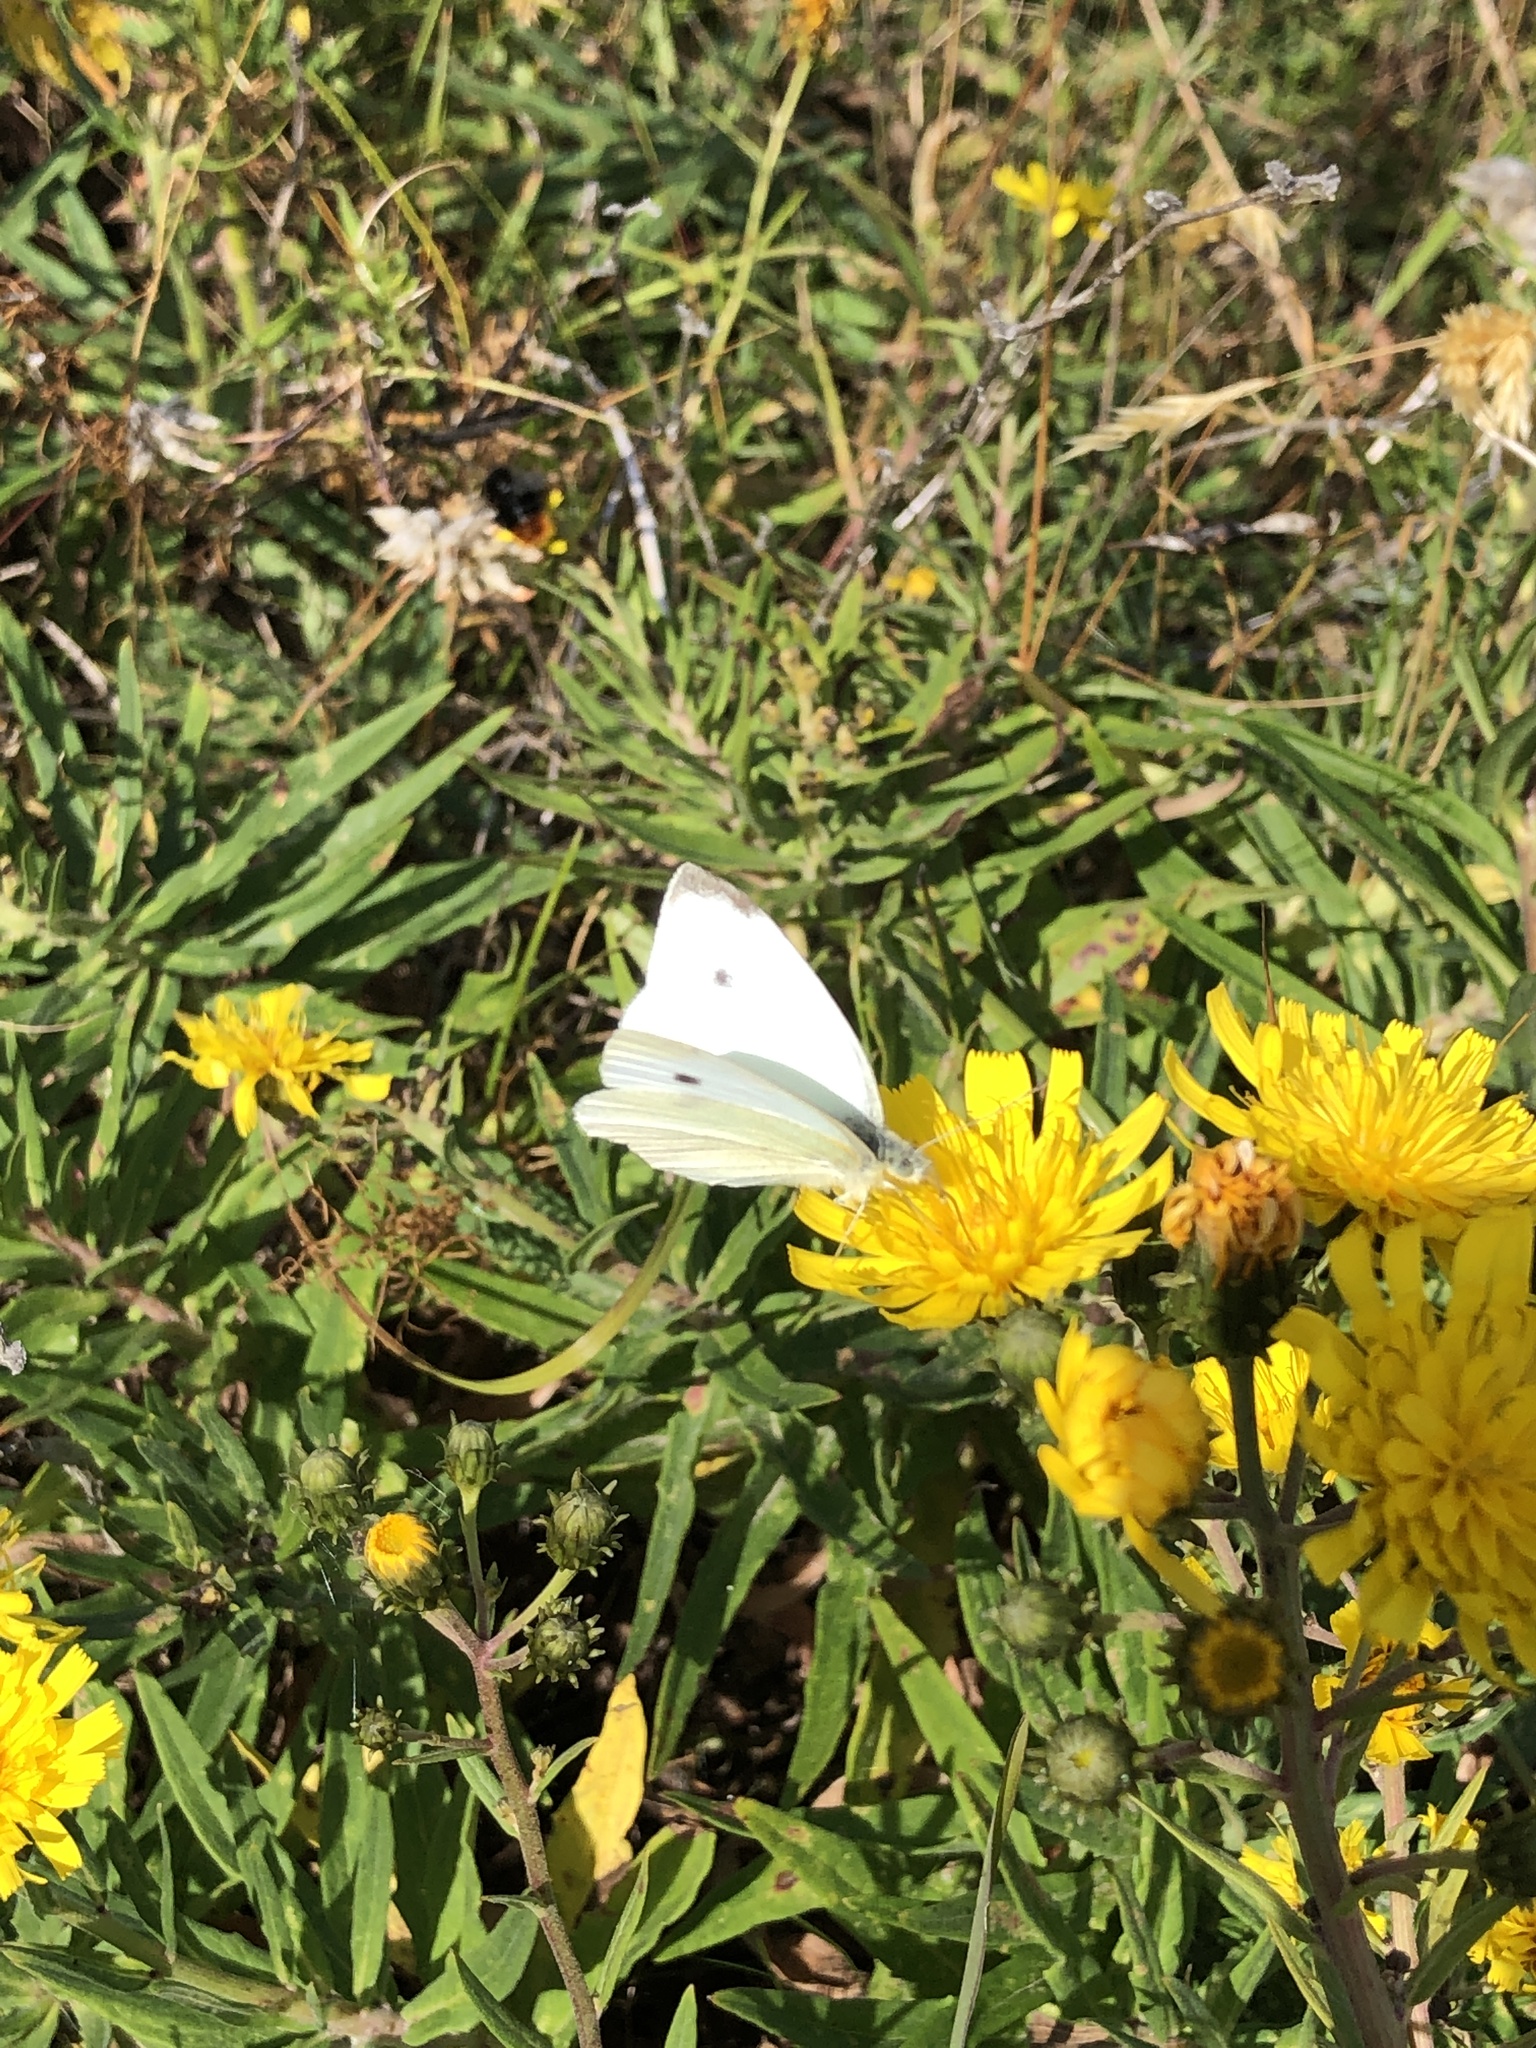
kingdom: Animalia
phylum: Arthropoda
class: Insecta
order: Lepidoptera
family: Pieridae
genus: Pieris
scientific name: Pieris rapae
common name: Small white
